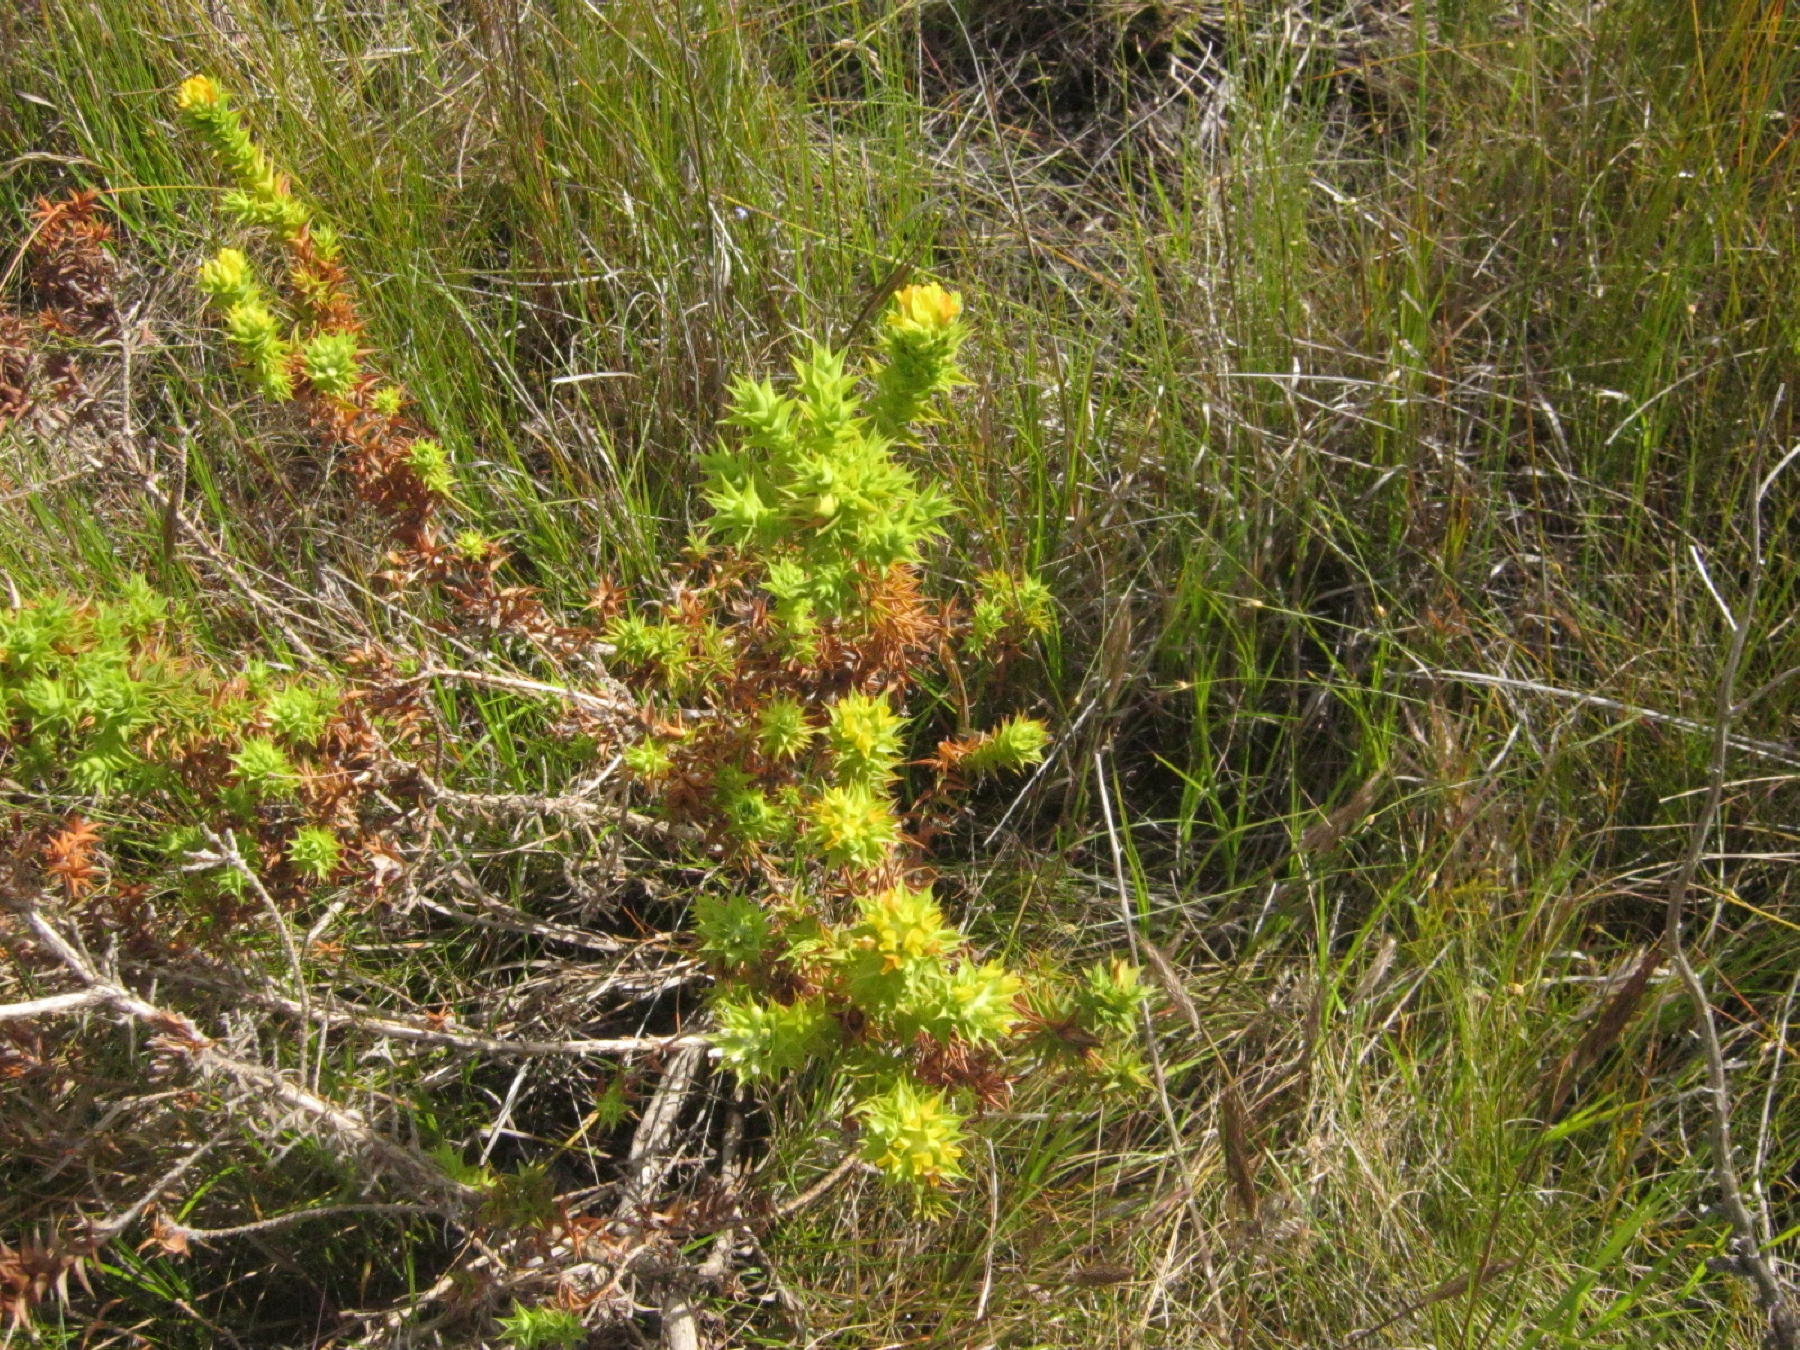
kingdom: Plantae
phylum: Tracheophyta
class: Magnoliopsida
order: Fabales
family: Fabaceae
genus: Aspalathus
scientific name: Aspalathus cordata
